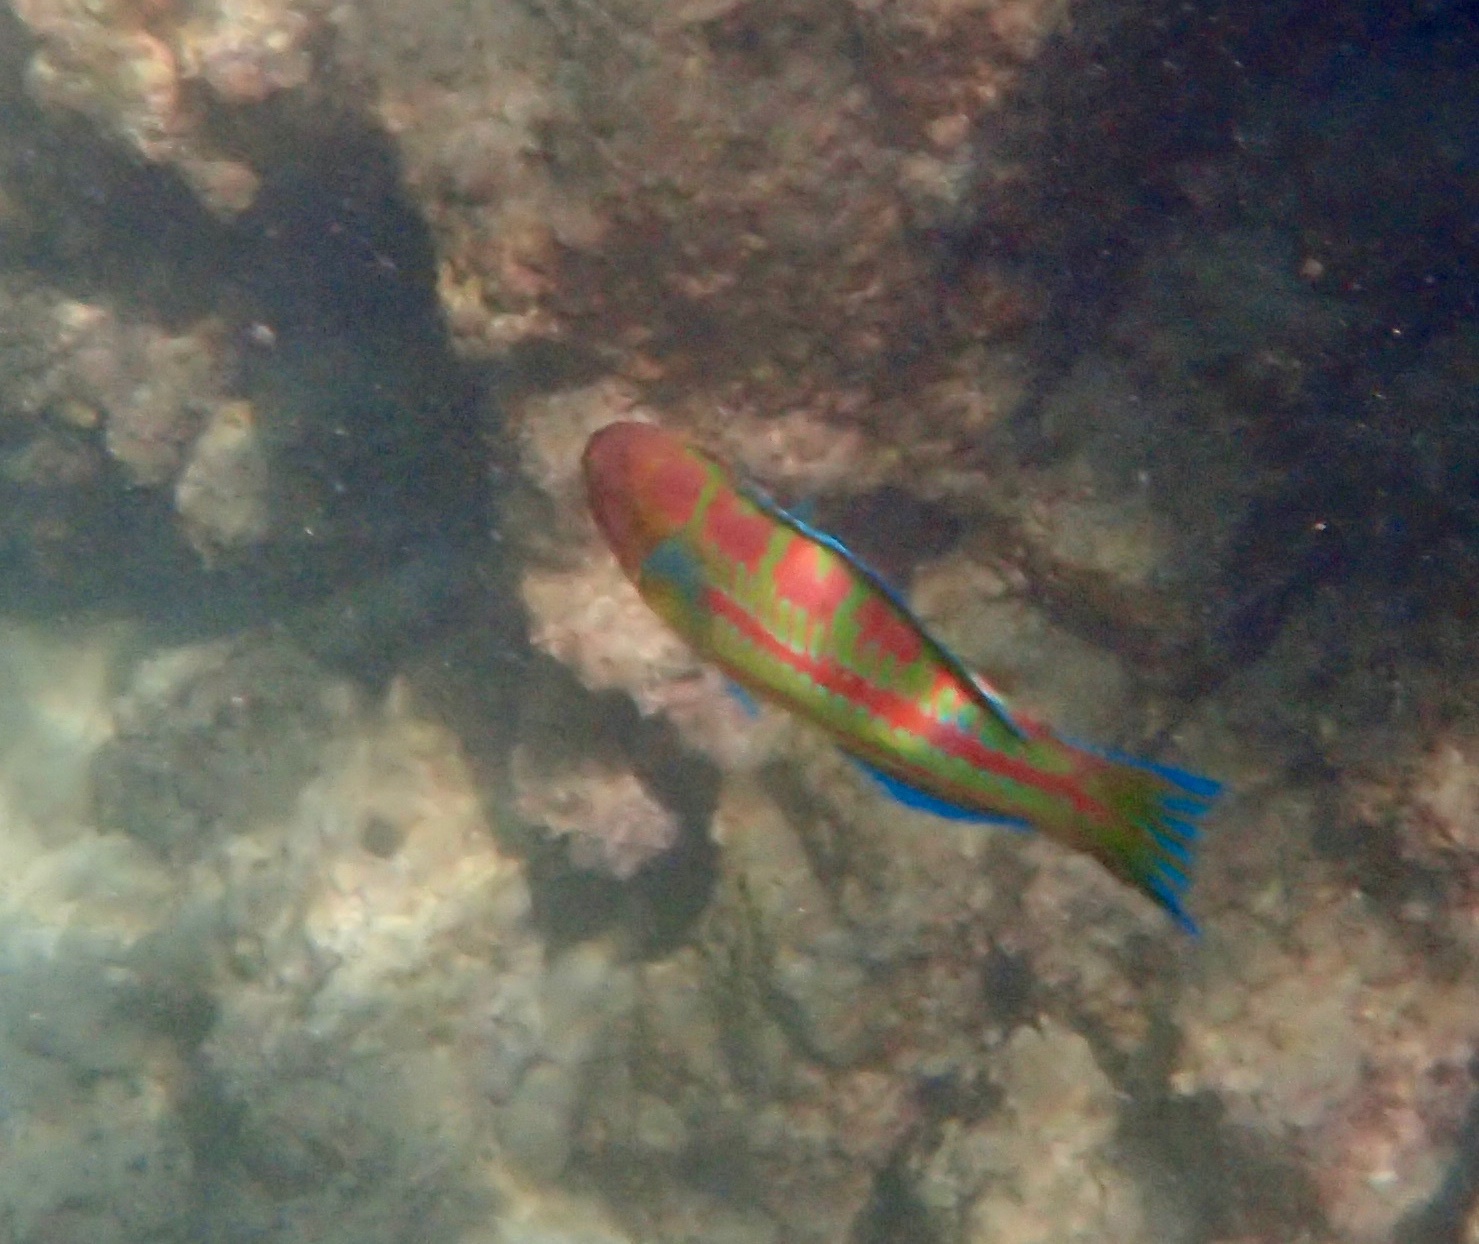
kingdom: Animalia
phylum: Chordata
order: Perciformes
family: Labridae
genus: Thalassoma
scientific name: Thalassoma trilobatum
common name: Christmas wrasse
